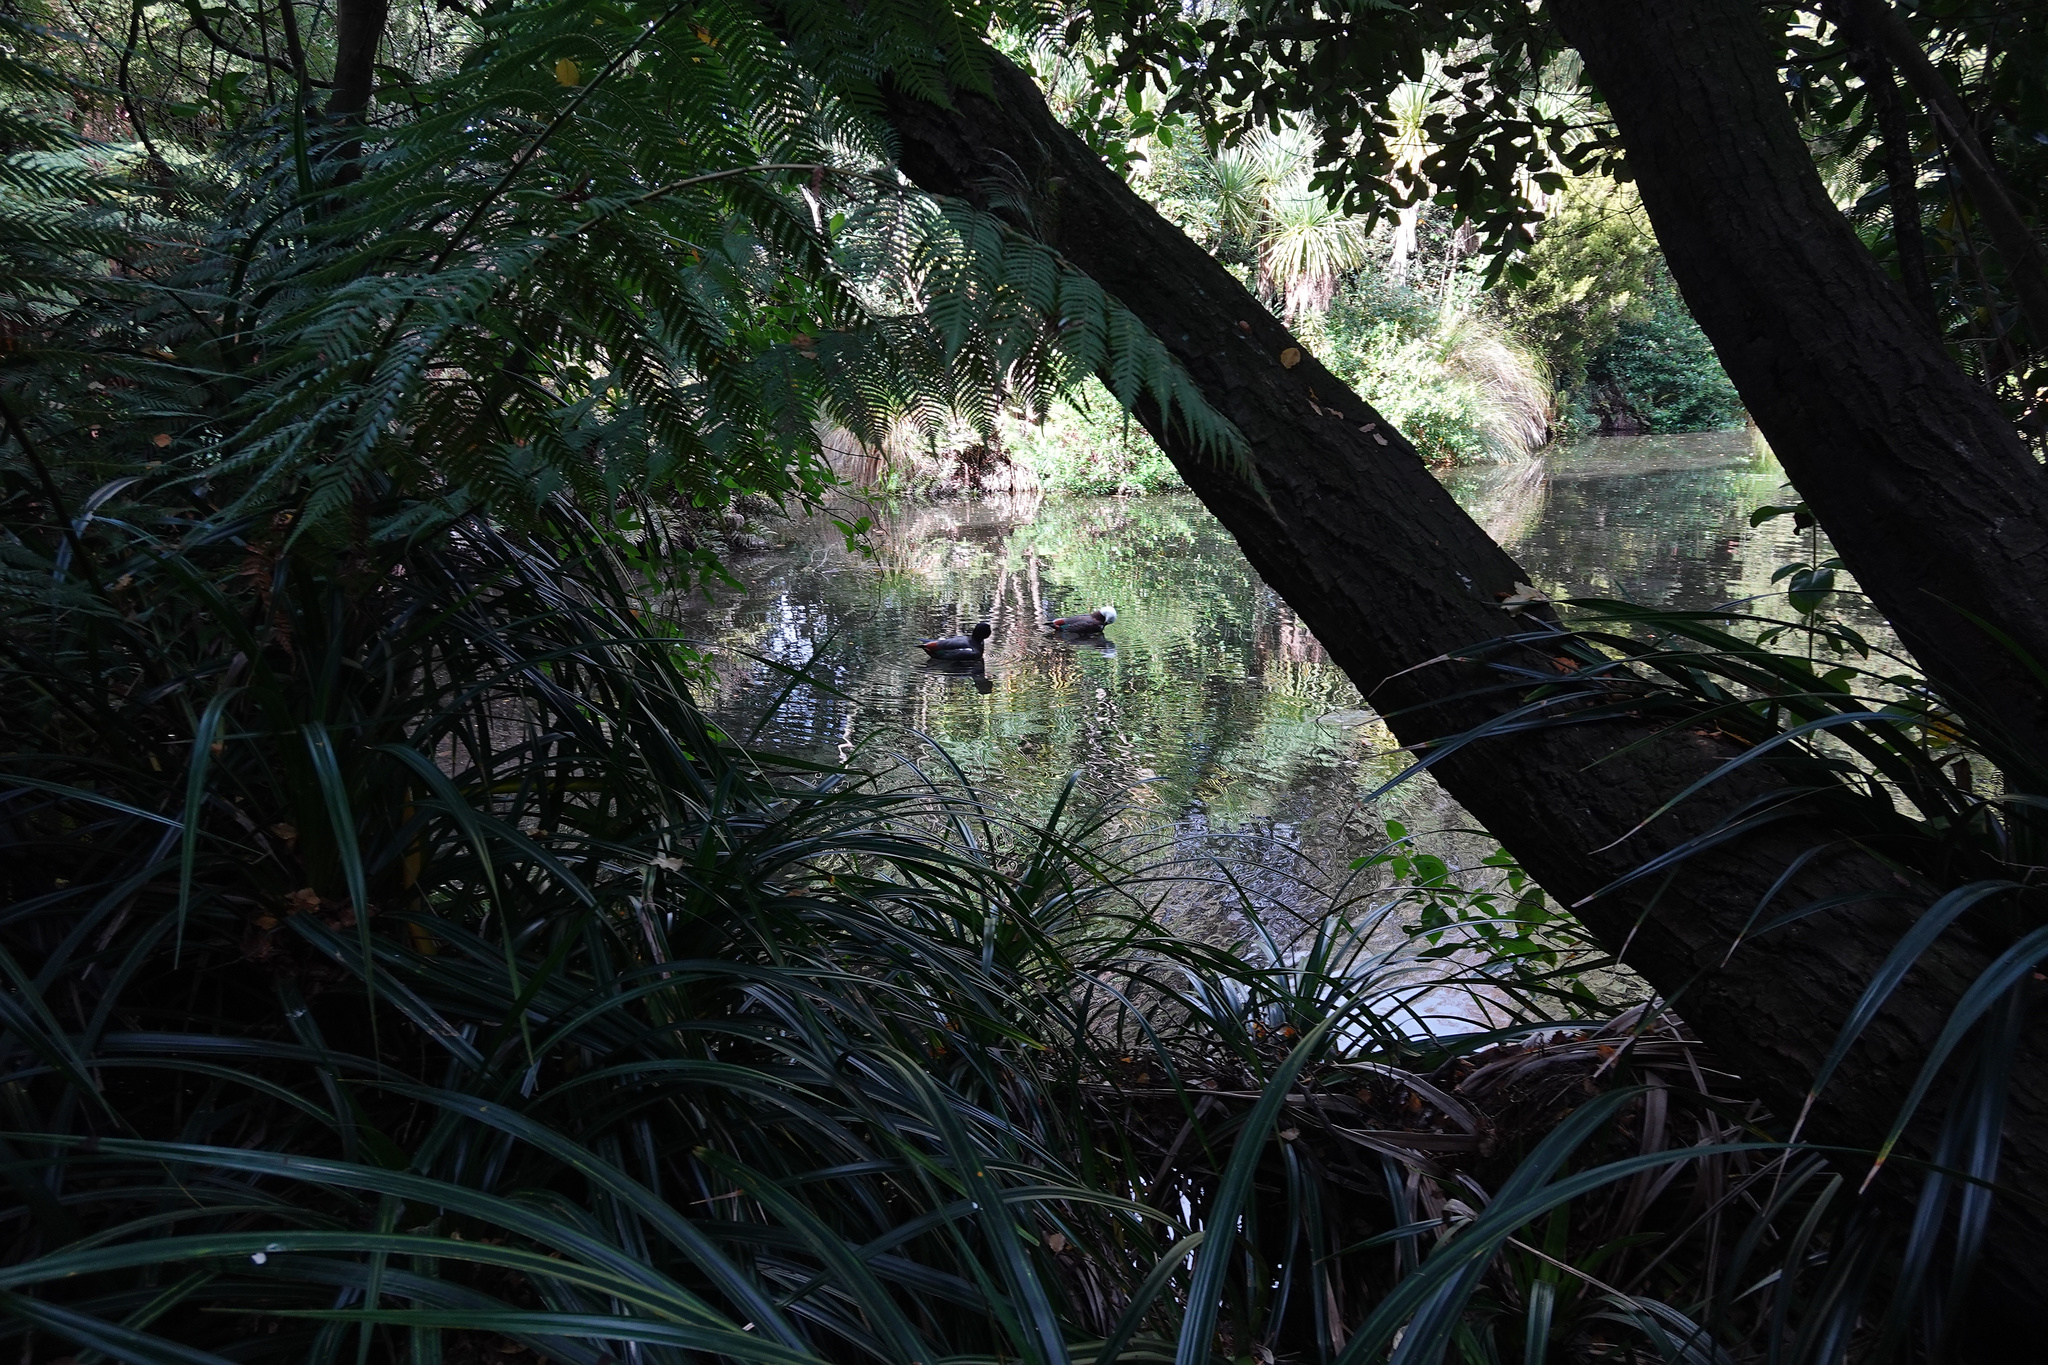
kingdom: Animalia
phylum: Chordata
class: Aves
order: Anseriformes
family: Anatidae
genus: Tadorna
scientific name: Tadorna variegata
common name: Paradise shelduck
